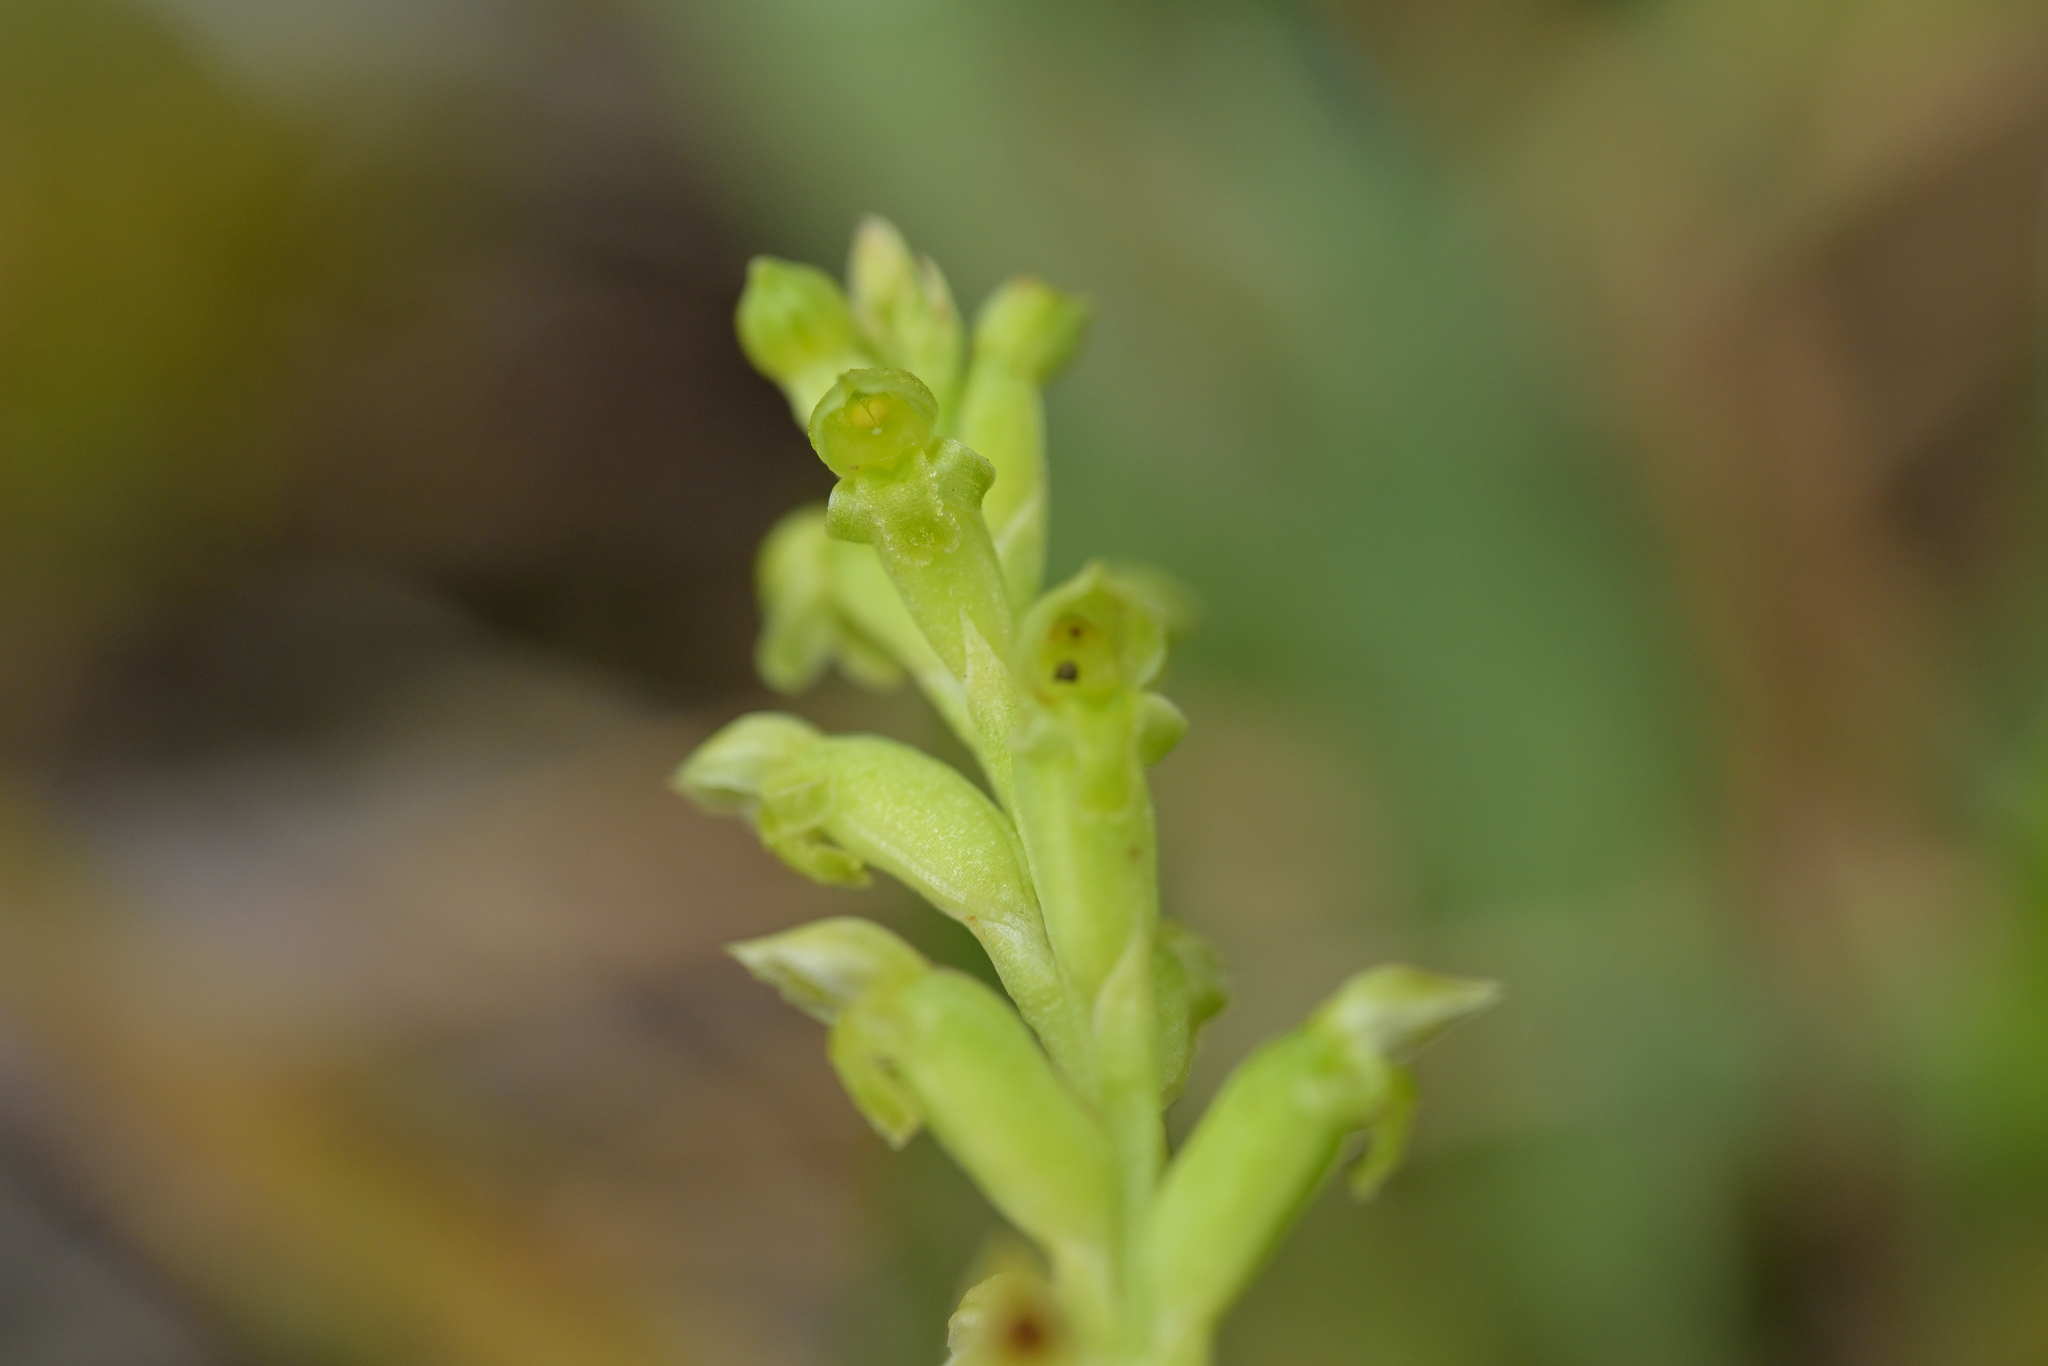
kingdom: Plantae
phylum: Tracheophyta
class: Liliopsida
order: Asparagales
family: Orchidaceae
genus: Microtis
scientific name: Microtis unifolia
